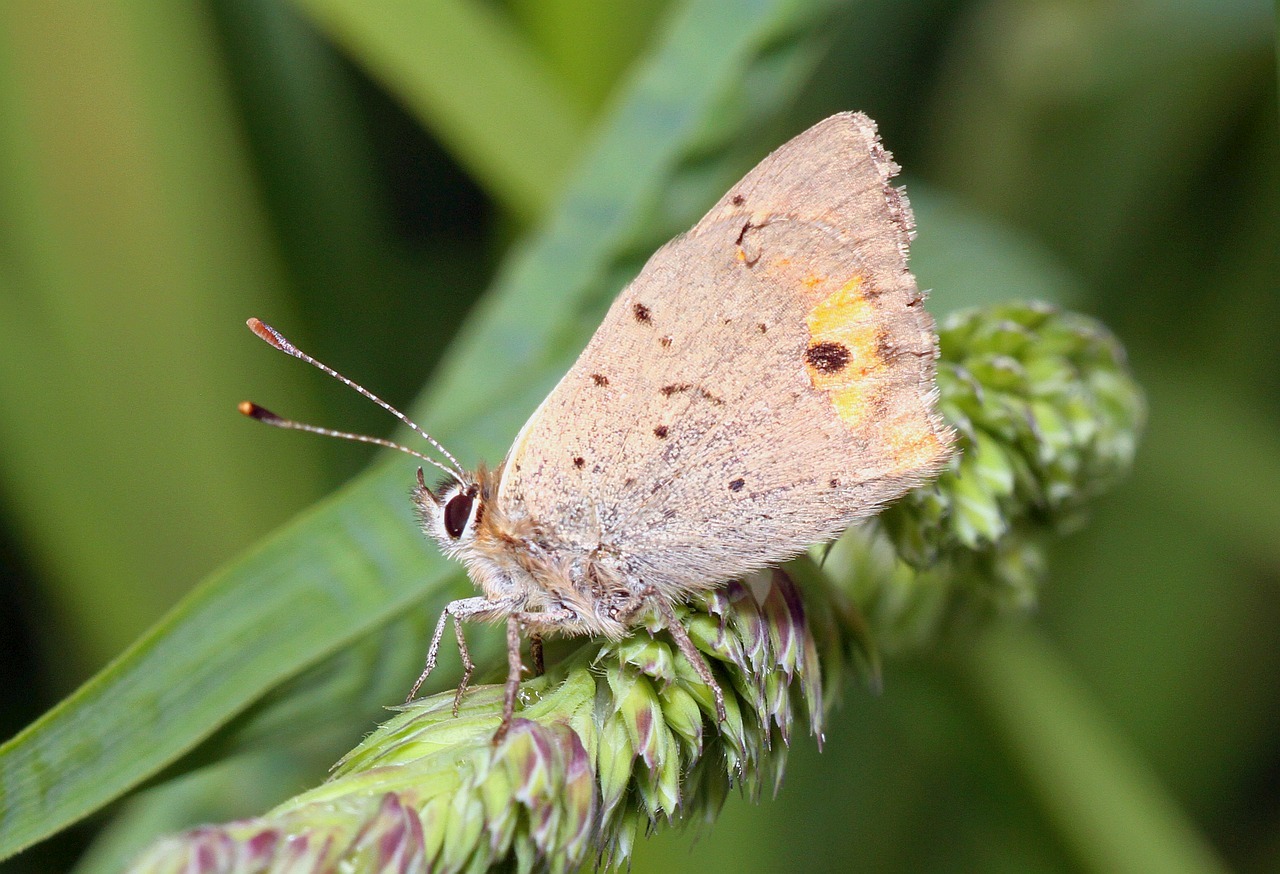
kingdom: Animalia
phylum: Arthropoda
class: Insecta
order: Lepidoptera
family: Lycaenidae
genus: Lycaena
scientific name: Lycaena phlaeas
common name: Small copper
